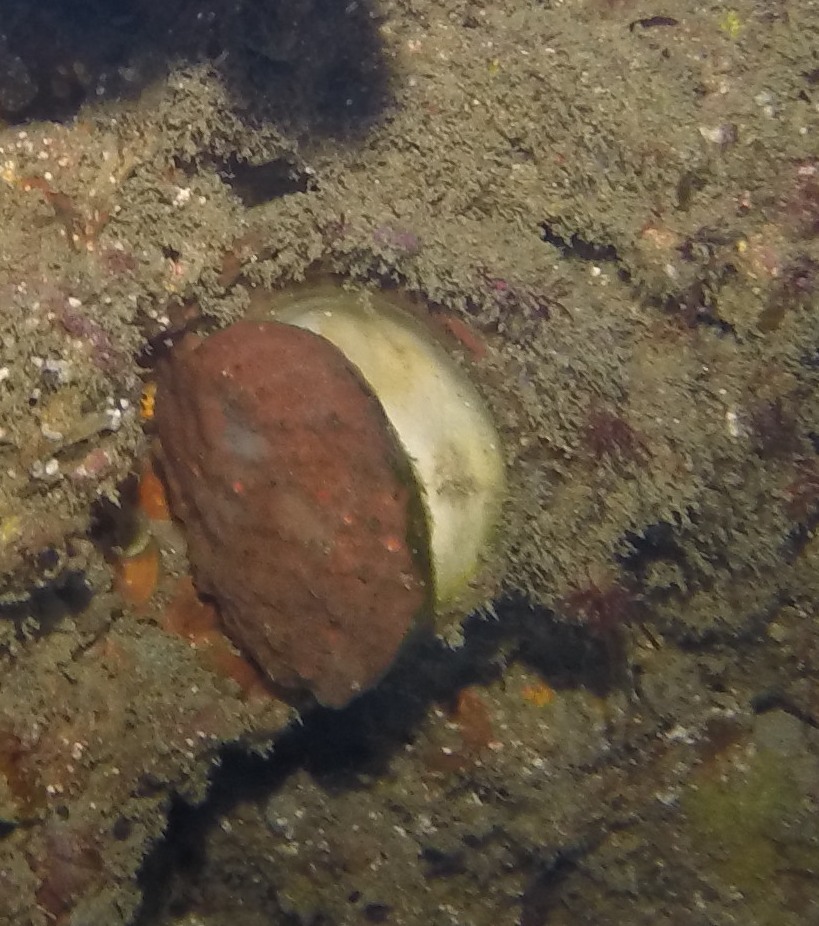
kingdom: Animalia
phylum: Mollusca
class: Bivalvia
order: Pectinida
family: Pectinidae
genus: Crassadoma
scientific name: Crassadoma gigantea
